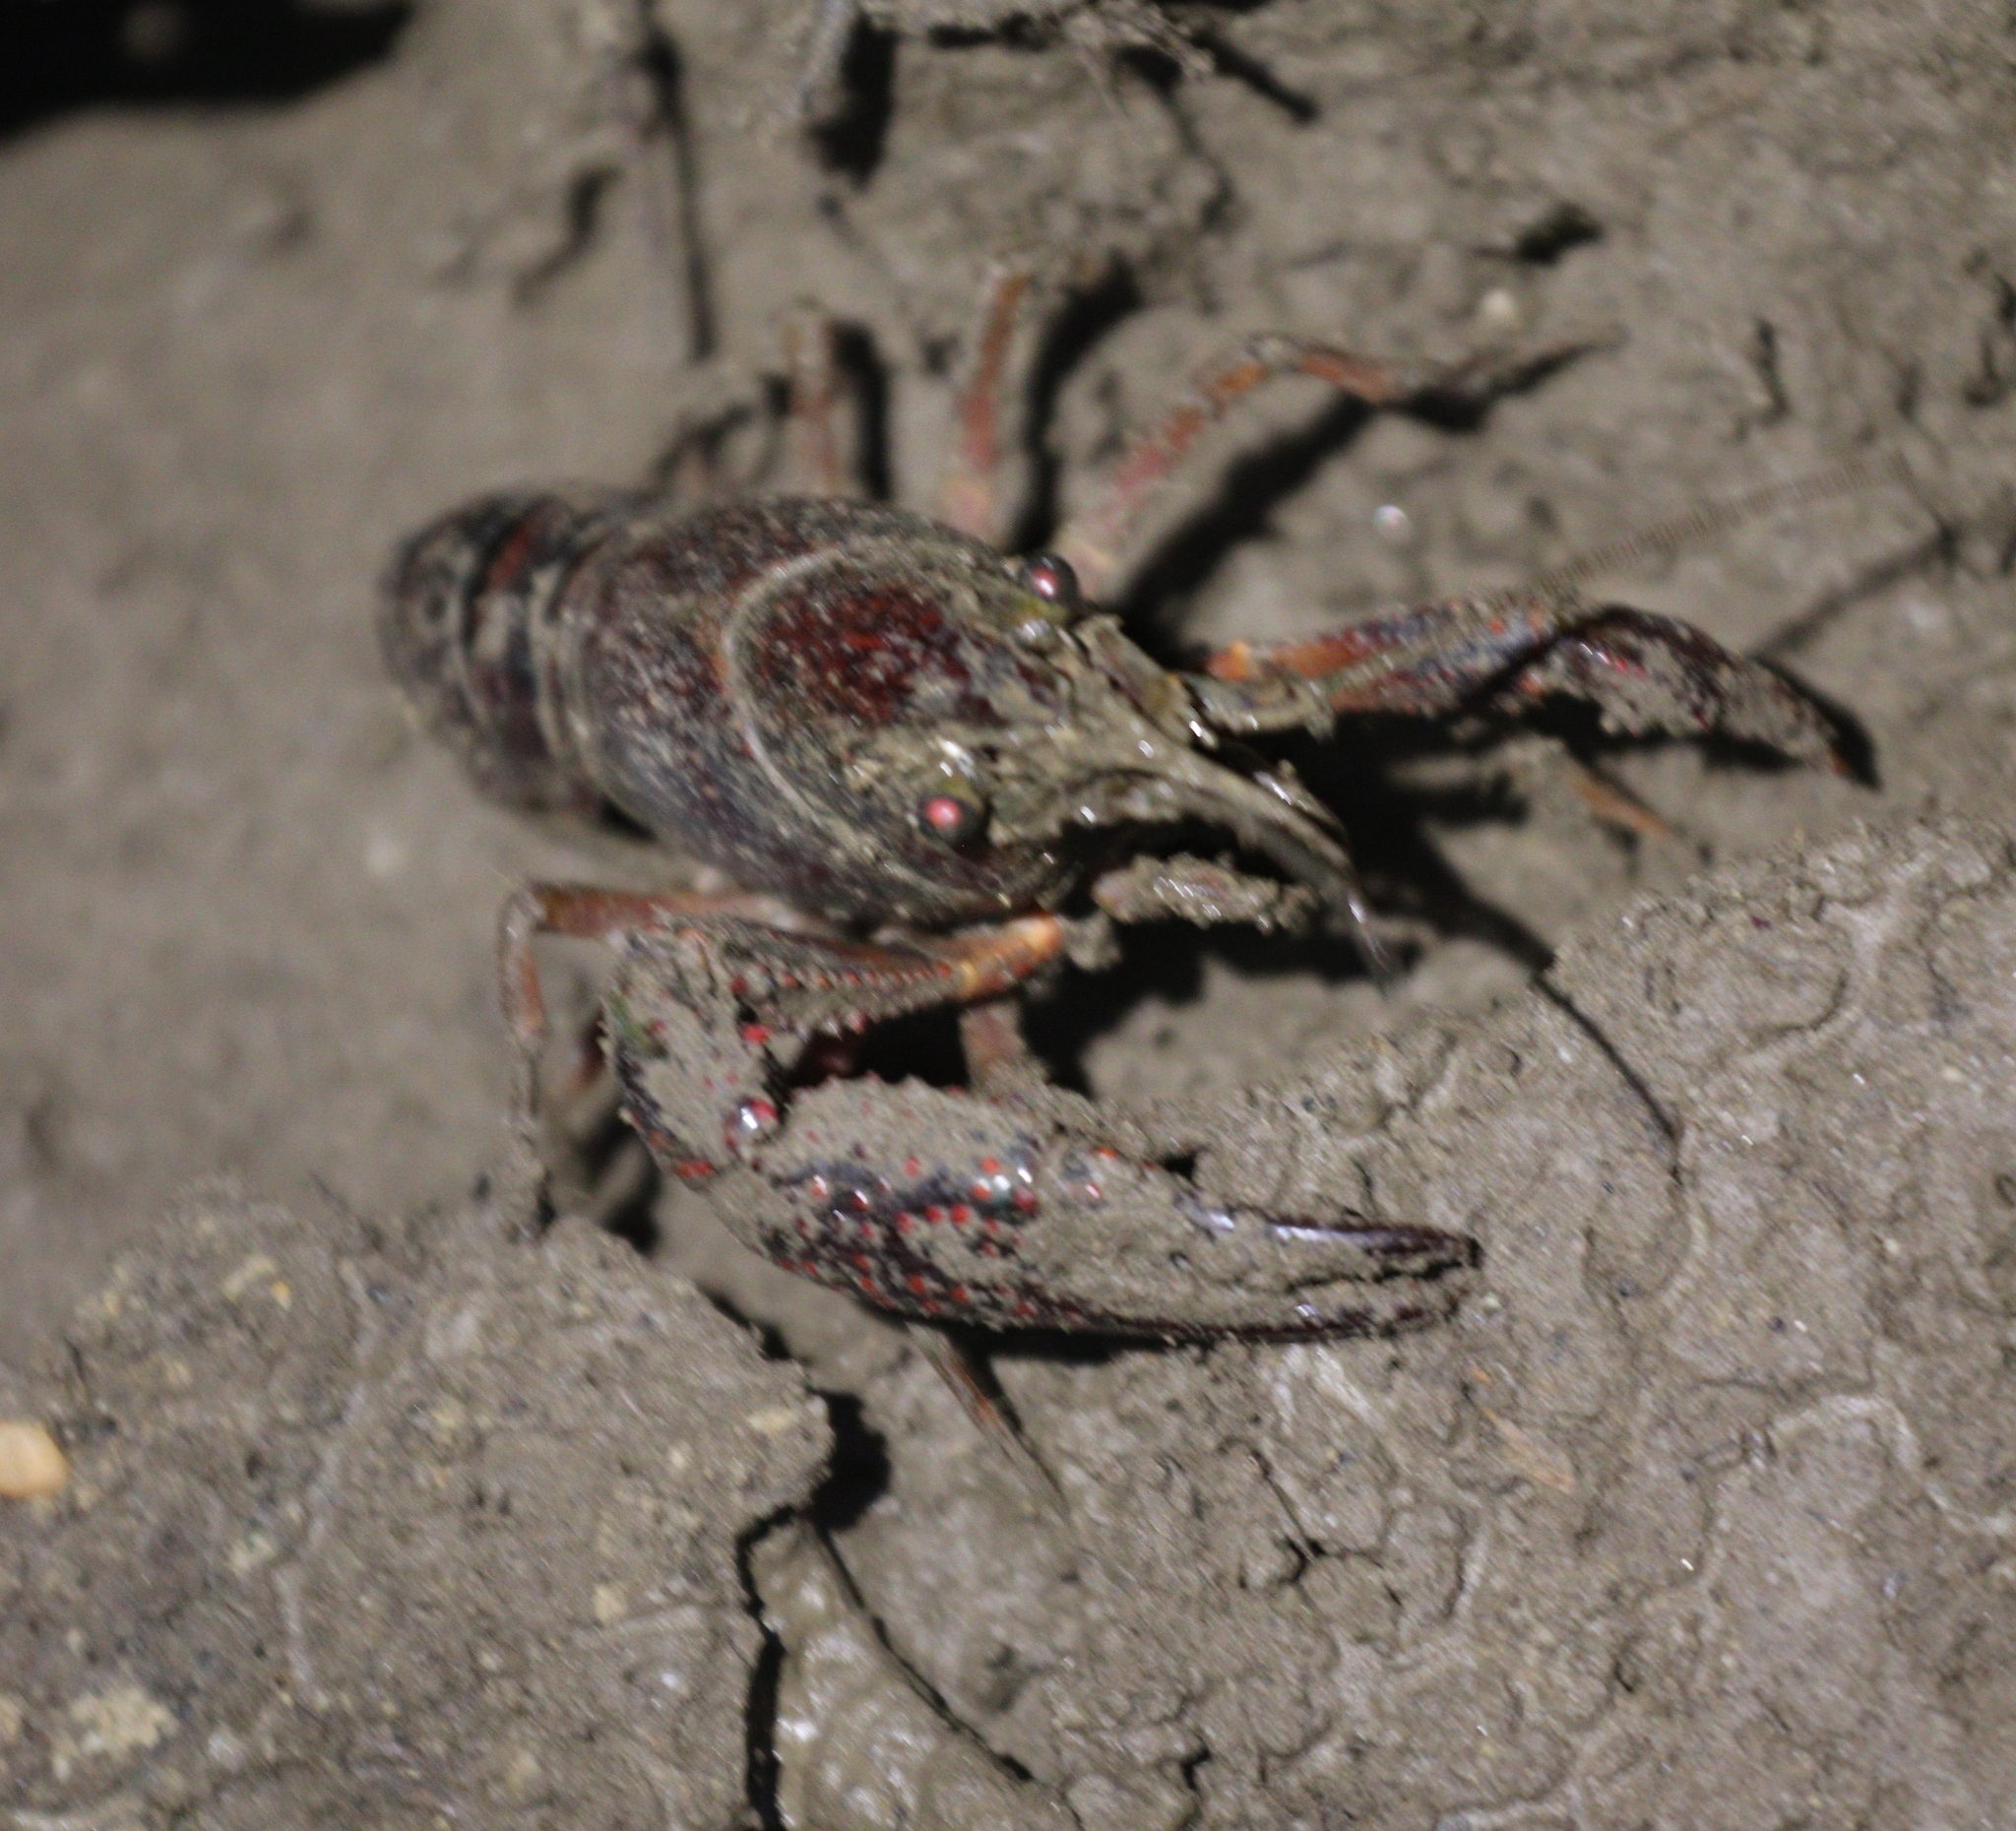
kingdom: Animalia
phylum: Arthropoda
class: Malacostraca
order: Decapoda
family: Cambaridae
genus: Procambarus
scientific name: Procambarus clarkii
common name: Red swamp crayfish
